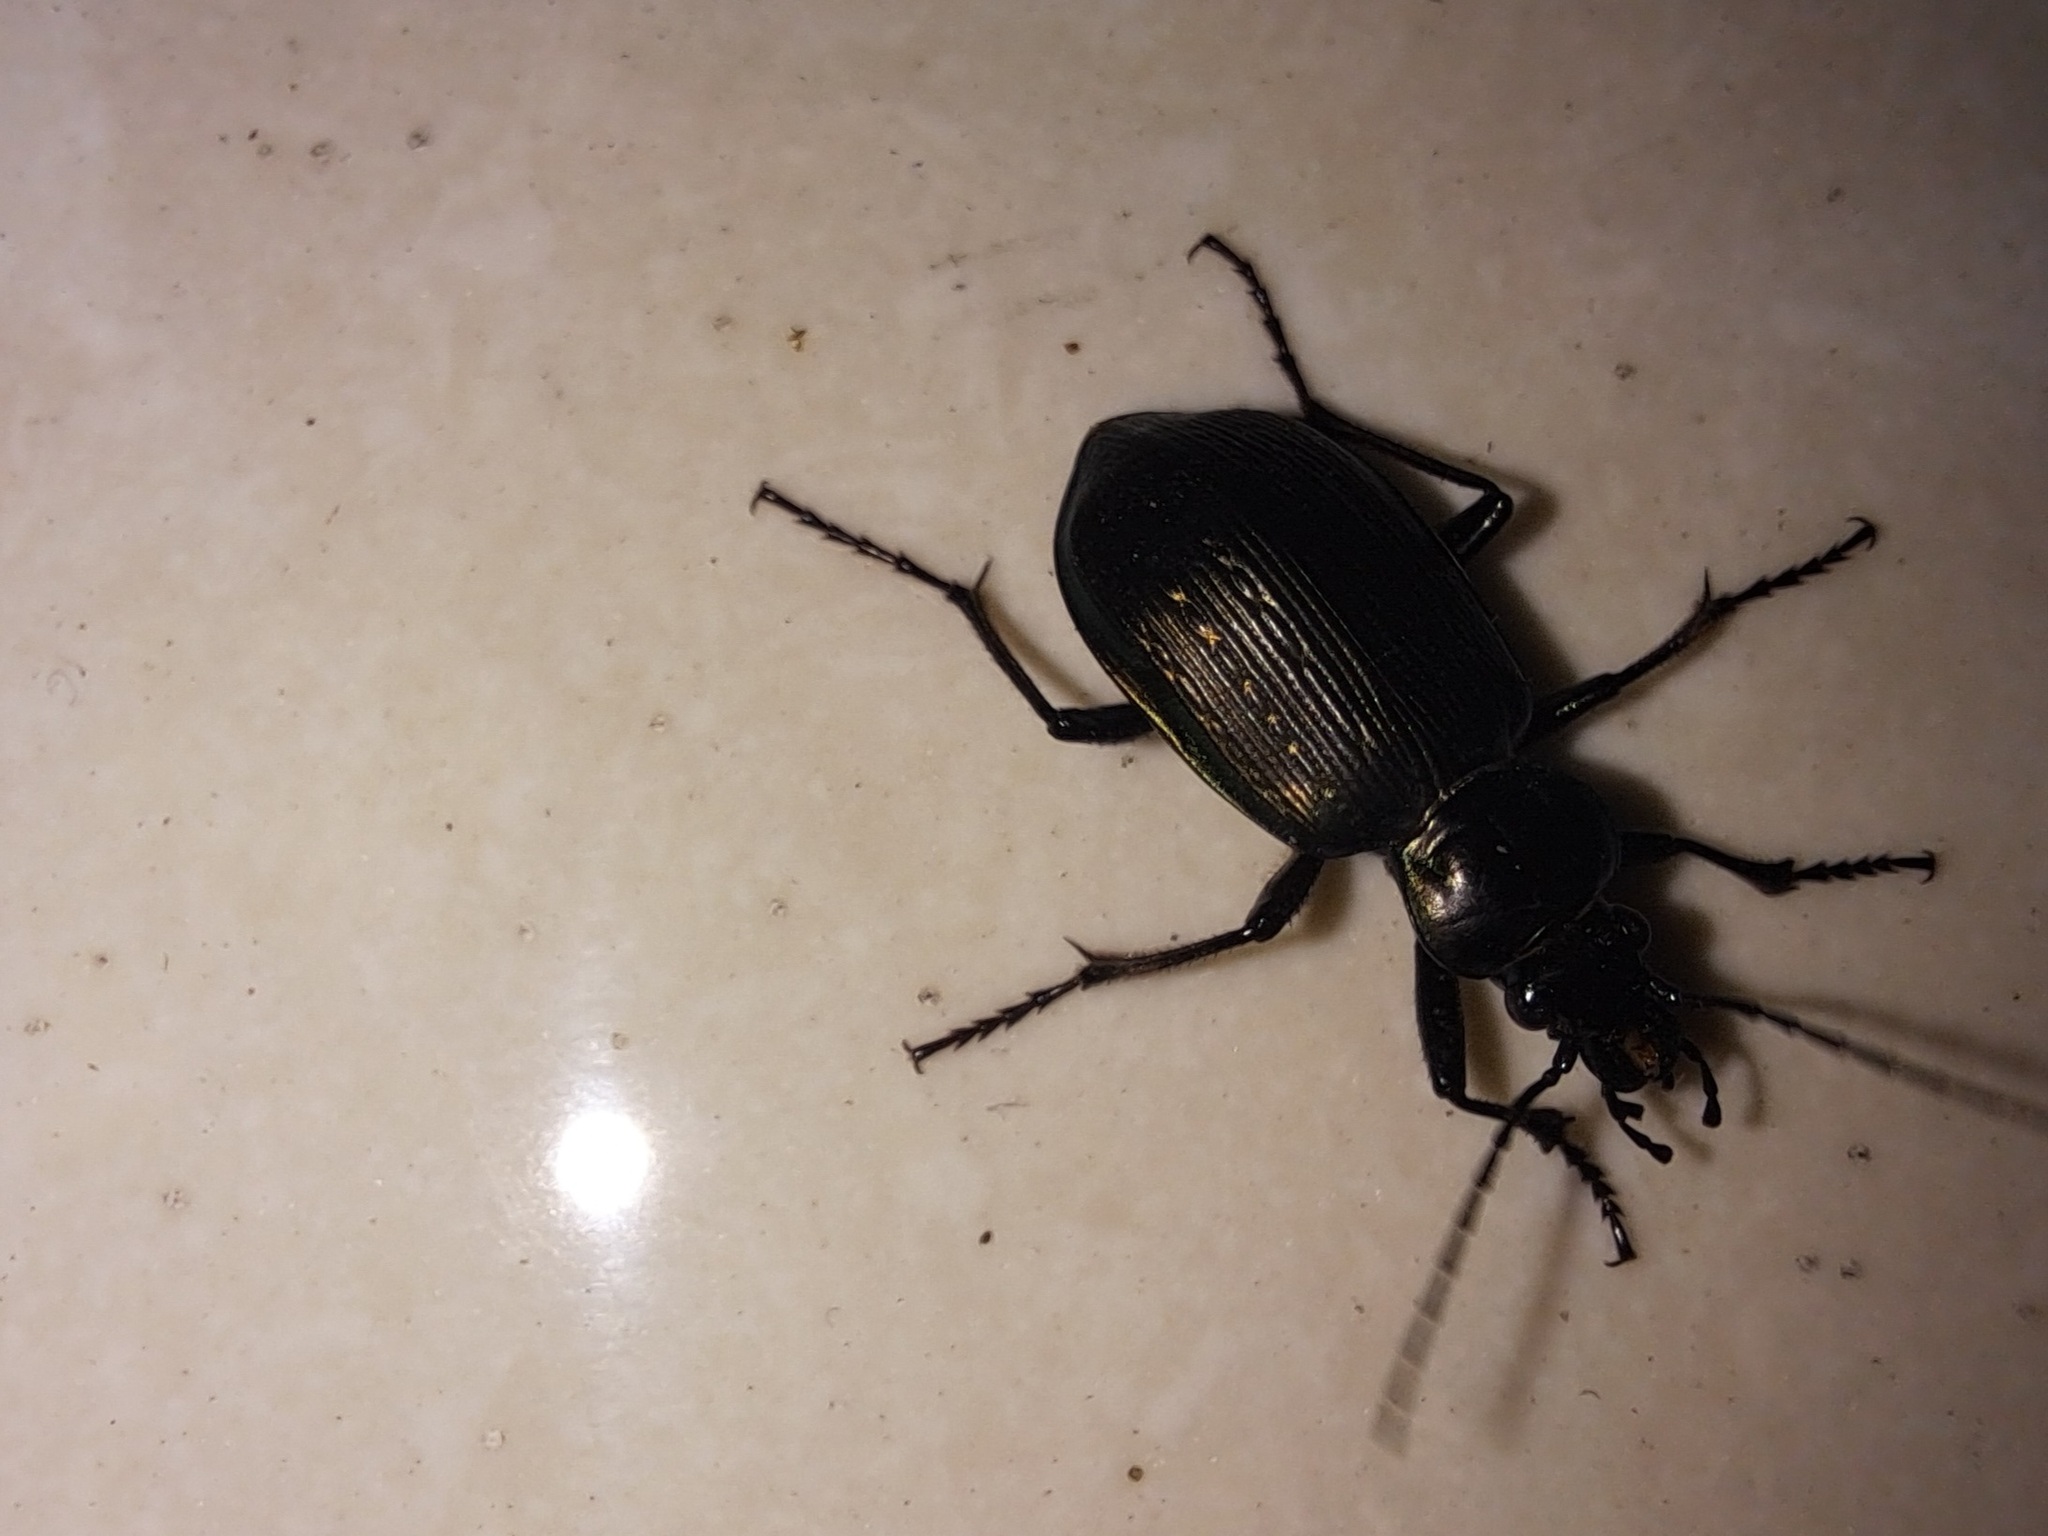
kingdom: Animalia
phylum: Arthropoda
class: Insecta
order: Coleoptera
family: Carabidae
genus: Calosoma
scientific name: Calosoma fulgens
